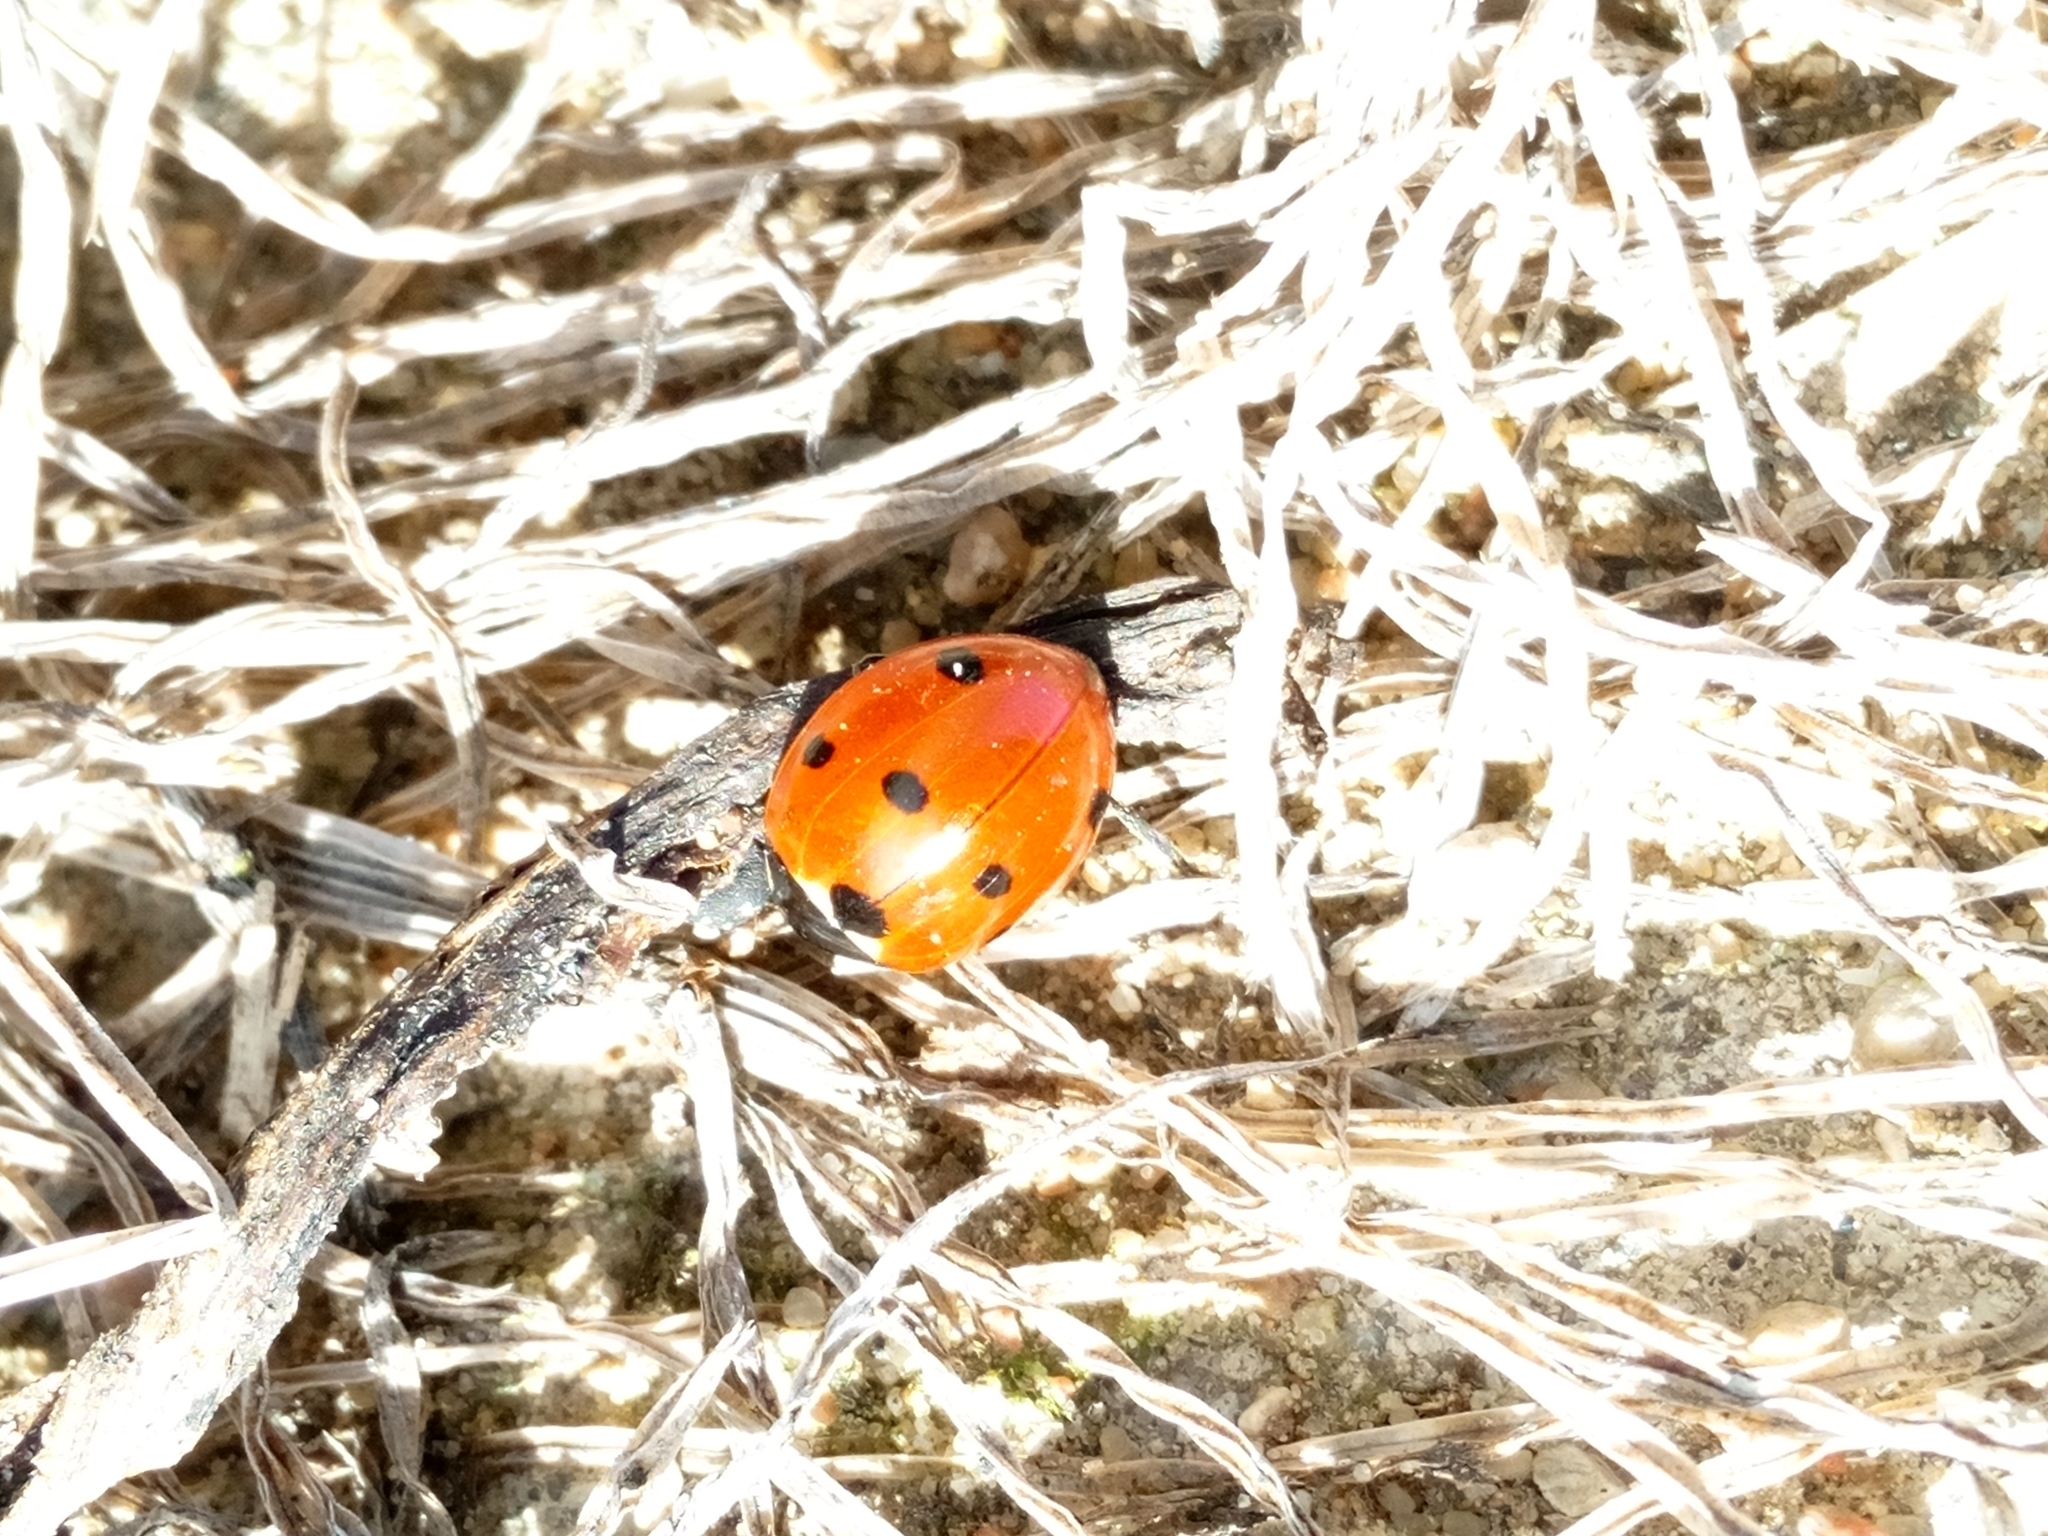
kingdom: Animalia
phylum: Arthropoda
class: Insecta
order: Coleoptera
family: Coccinellidae
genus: Coccinella
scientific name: Coccinella septempunctata
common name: Sevenspotted lady beetle
